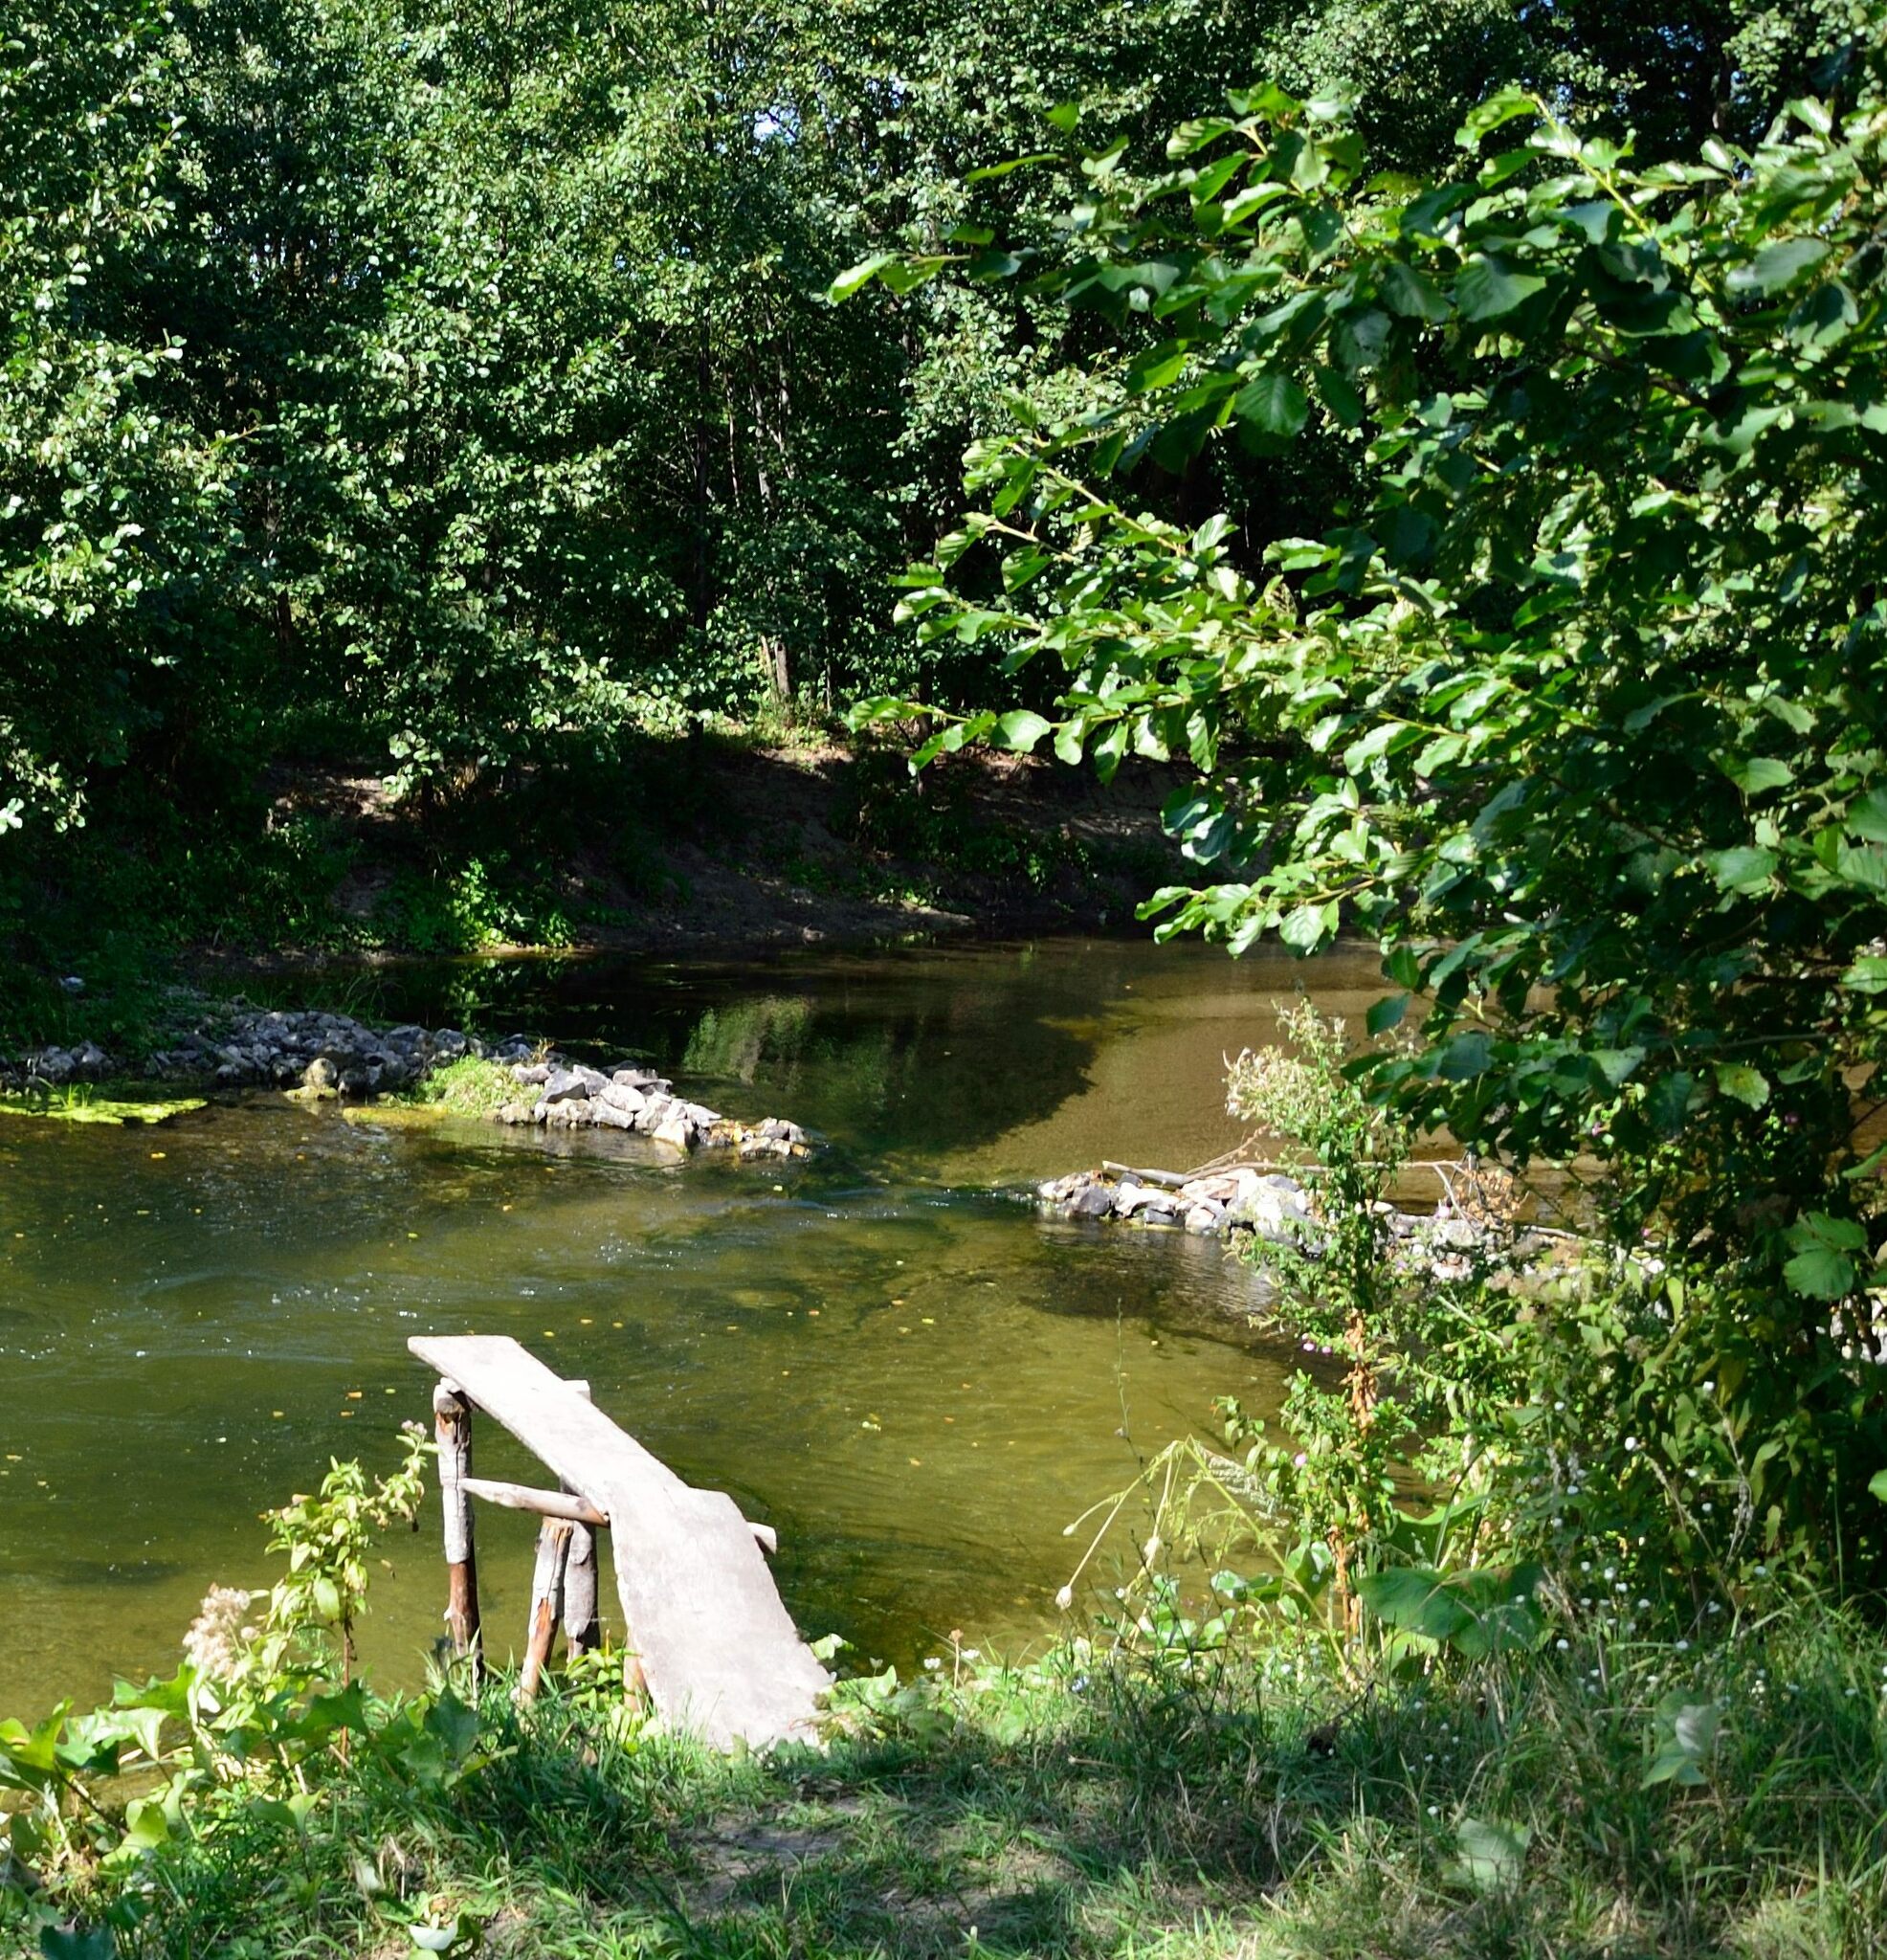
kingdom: Plantae
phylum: Tracheophyta
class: Magnoliopsida
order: Fagales
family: Betulaceae
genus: Alnus
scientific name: Alnus glutinosa
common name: Black alder
